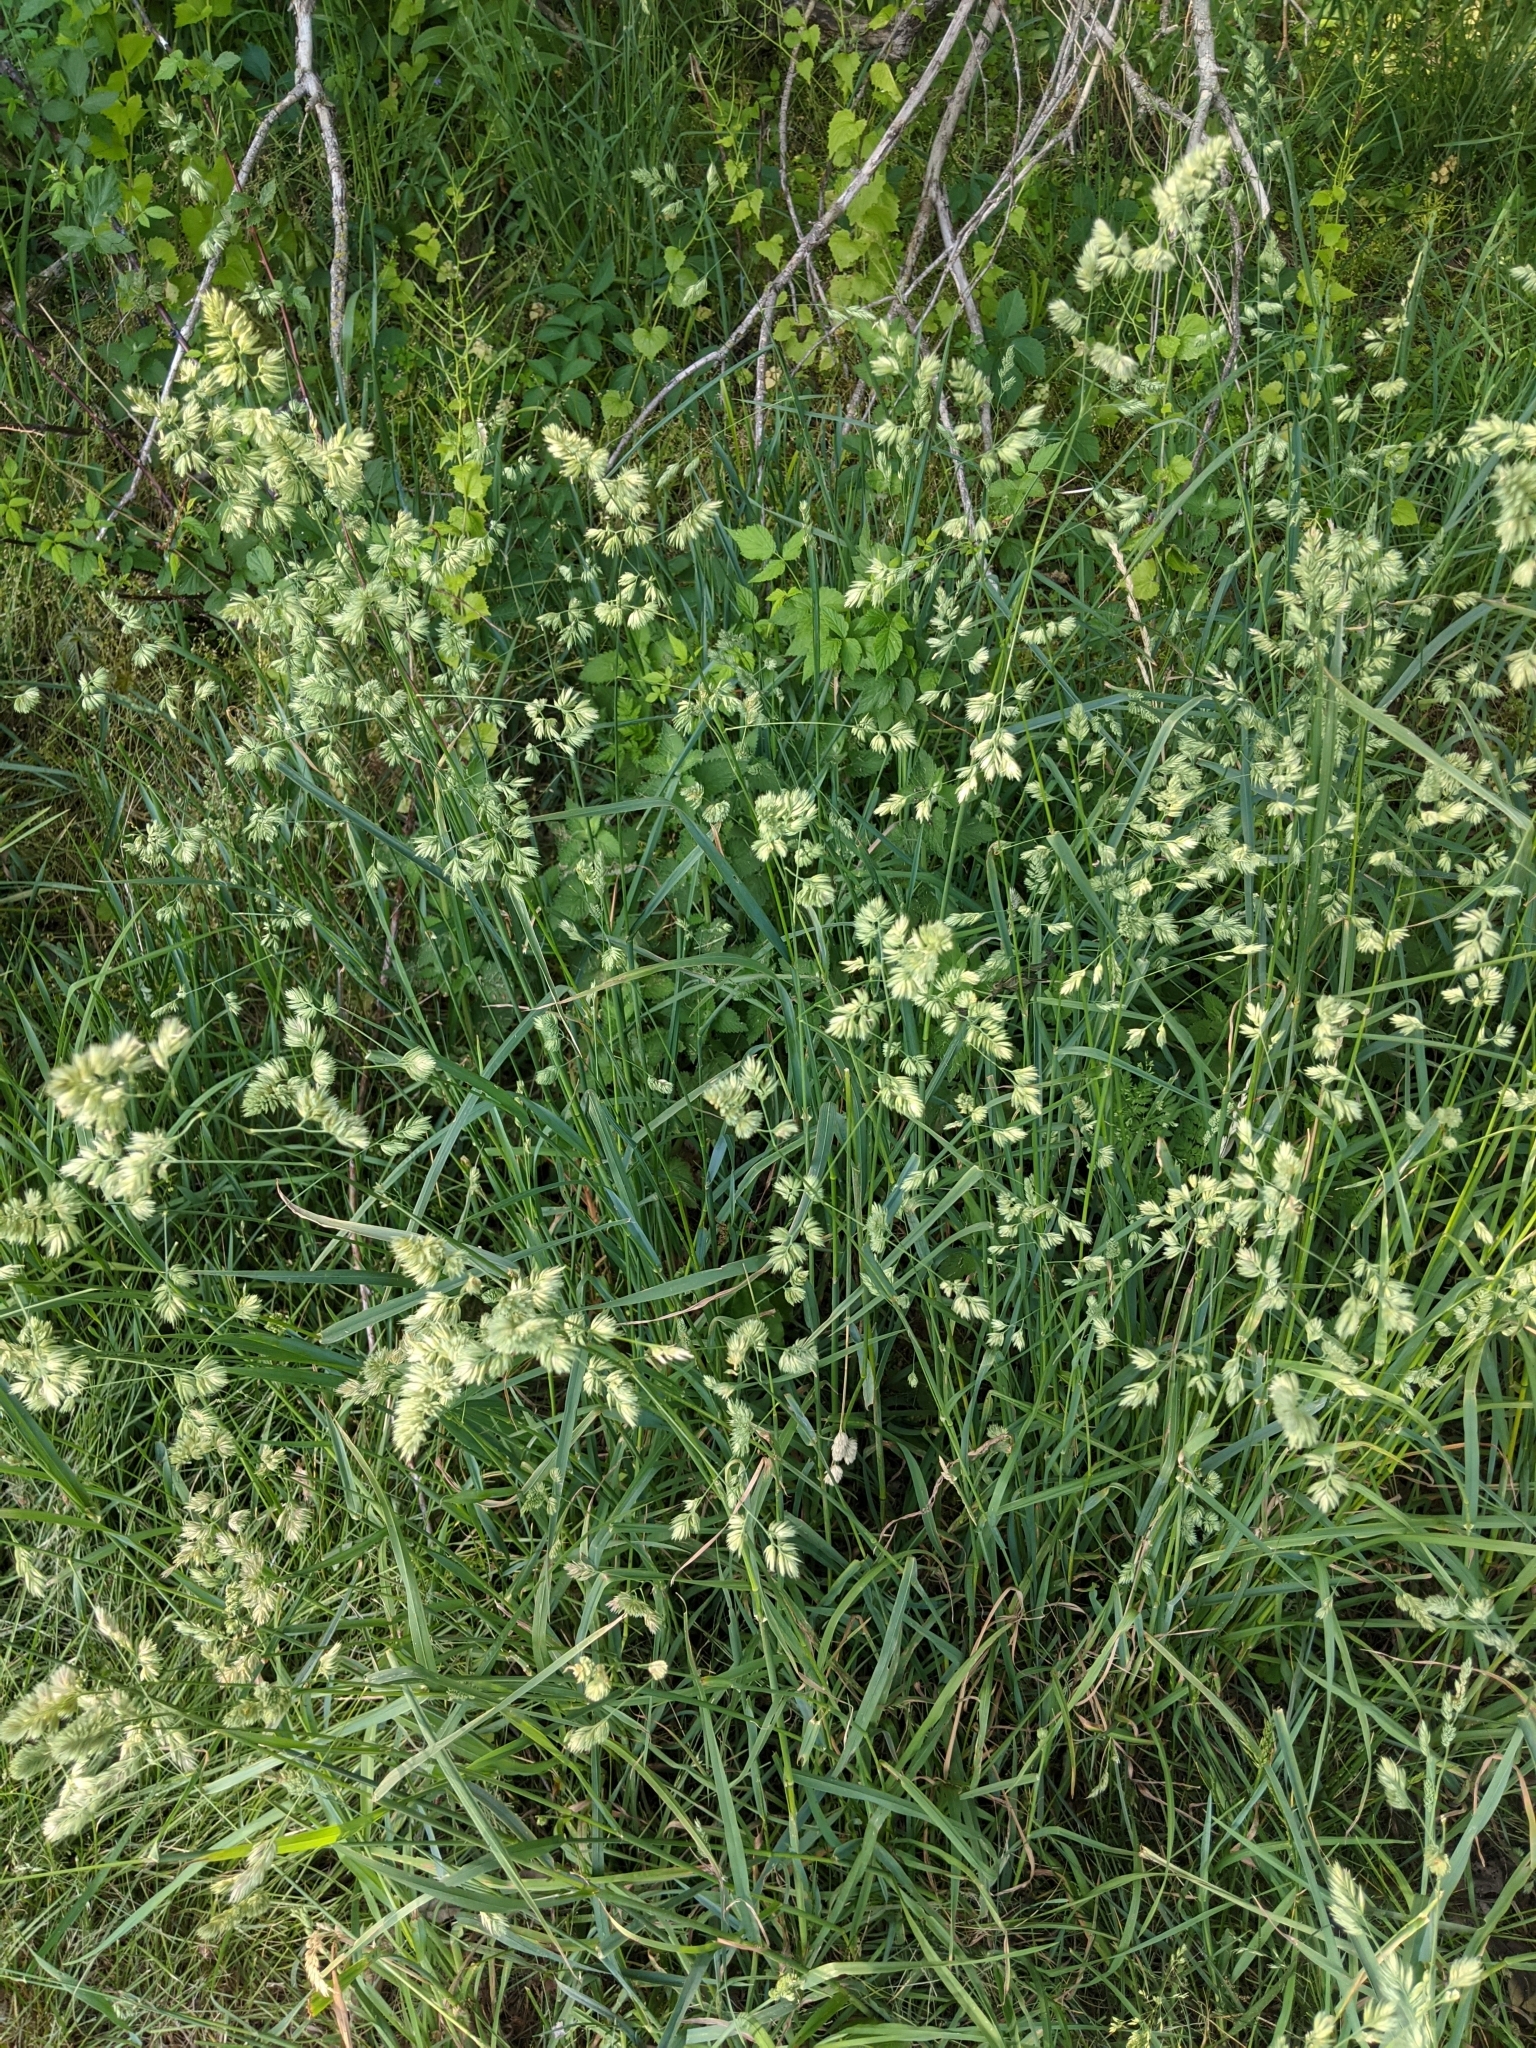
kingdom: Plantae
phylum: Tracheophyta
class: Liliopsida
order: Poales
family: Poaceae
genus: Dactylis
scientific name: Dactylis glomerata
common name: Orchardgrass
